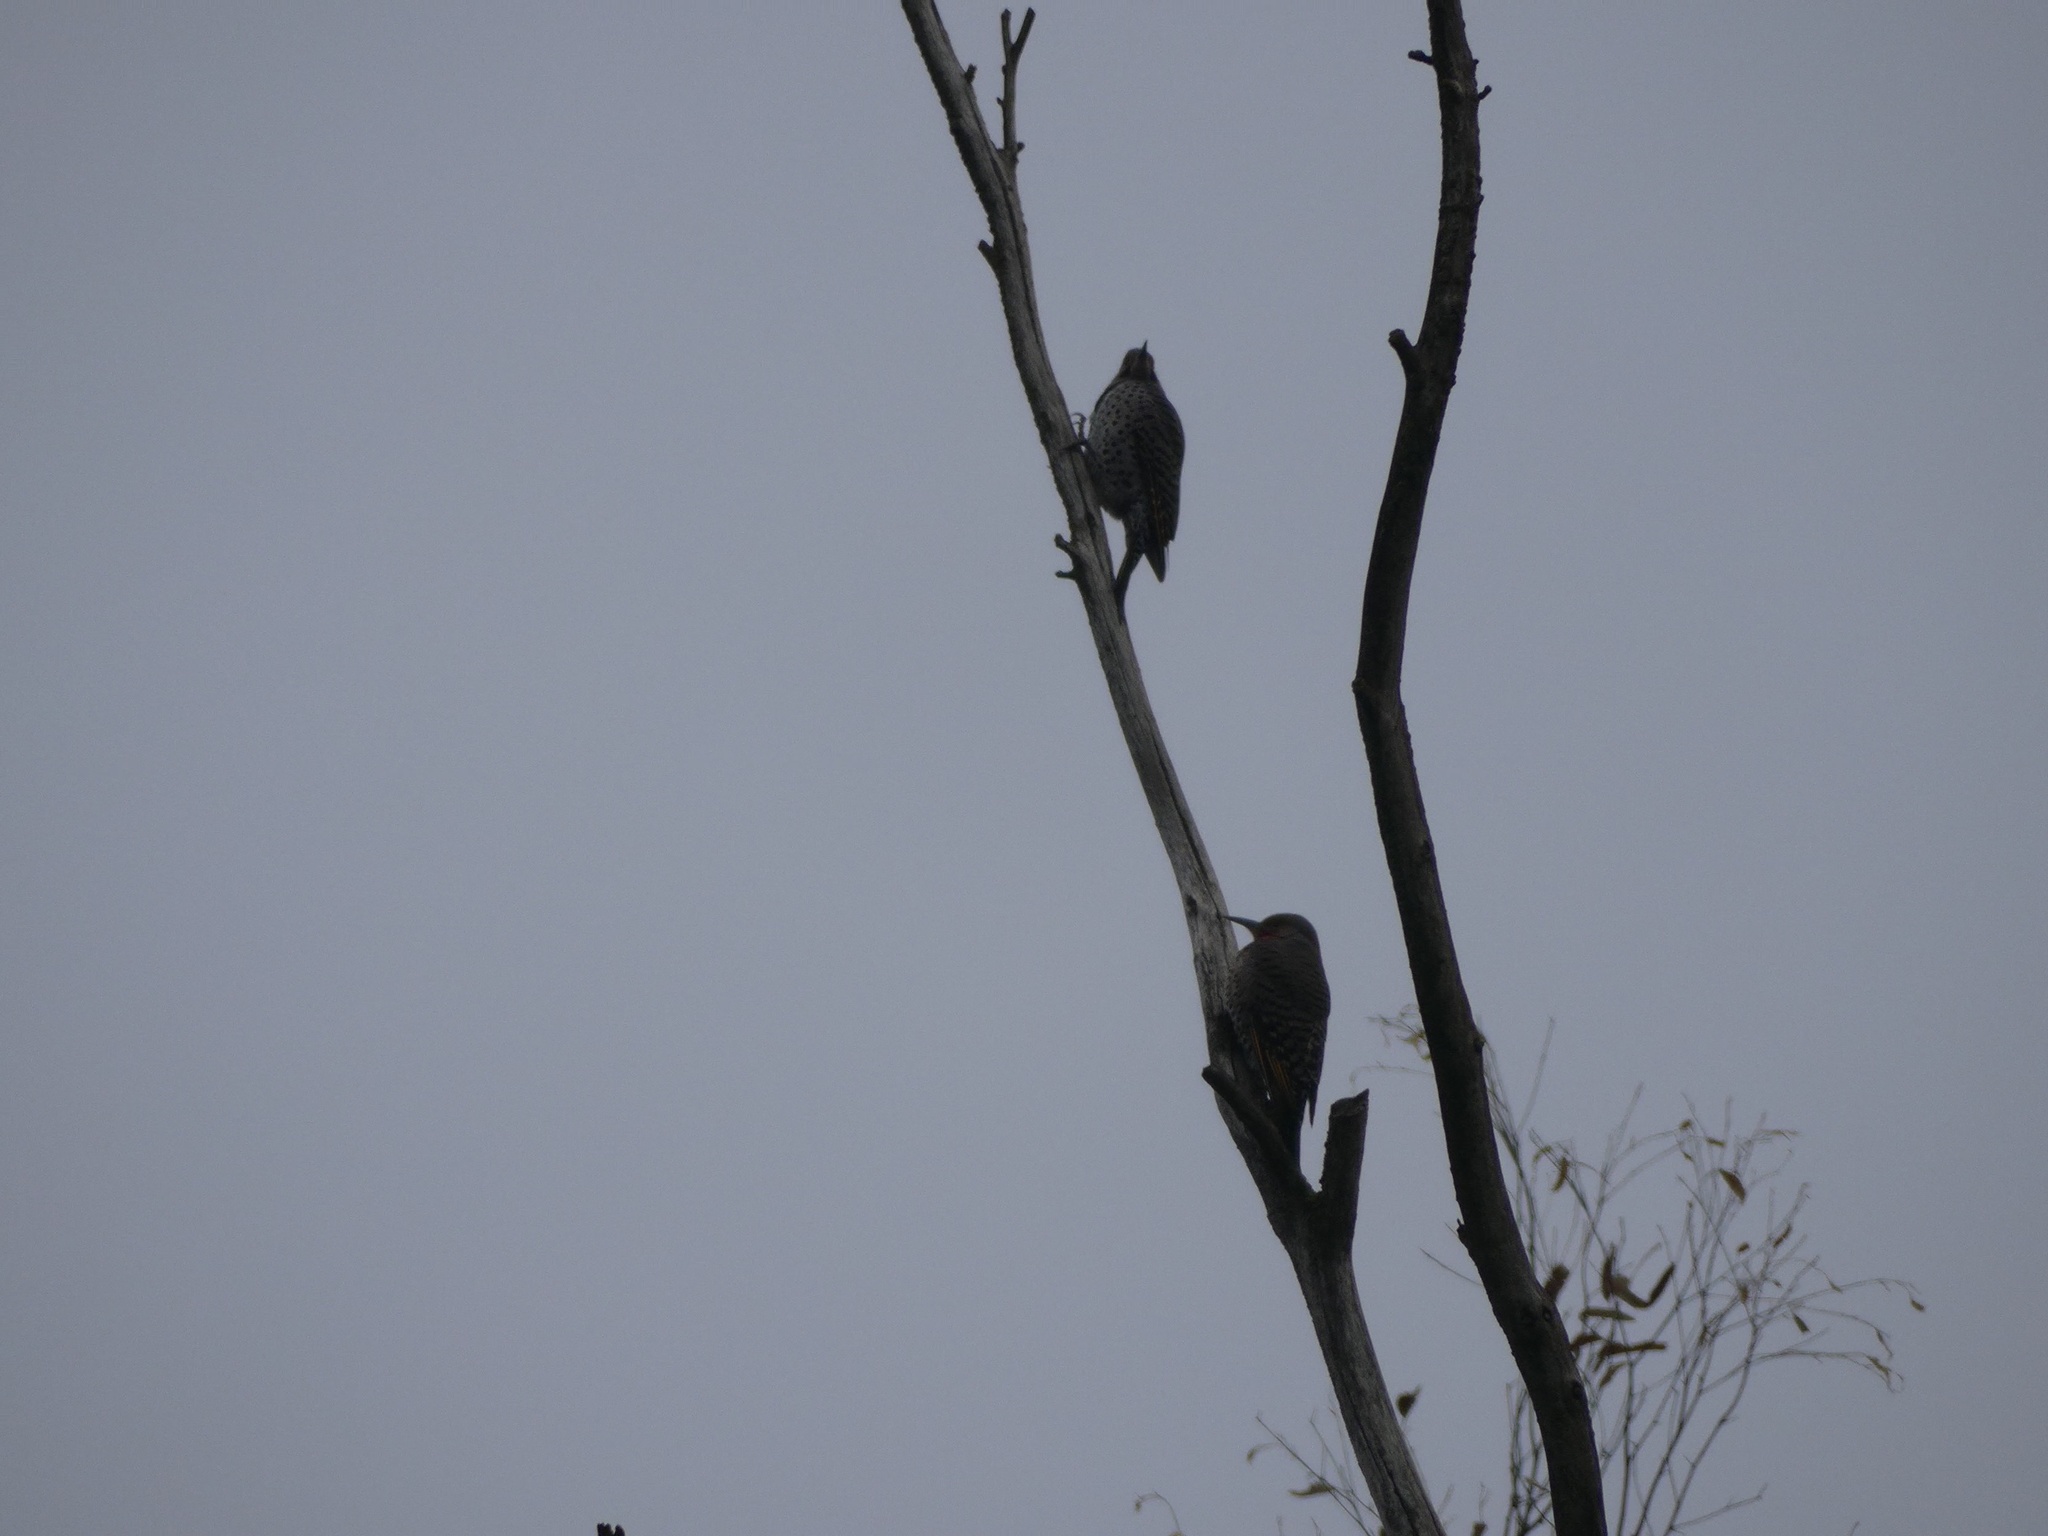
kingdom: Animalia
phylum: Chordata
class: Aves
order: Piciformes
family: Picidae
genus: Colaptes
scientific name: Colaptes auratus
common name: Northern flicker
